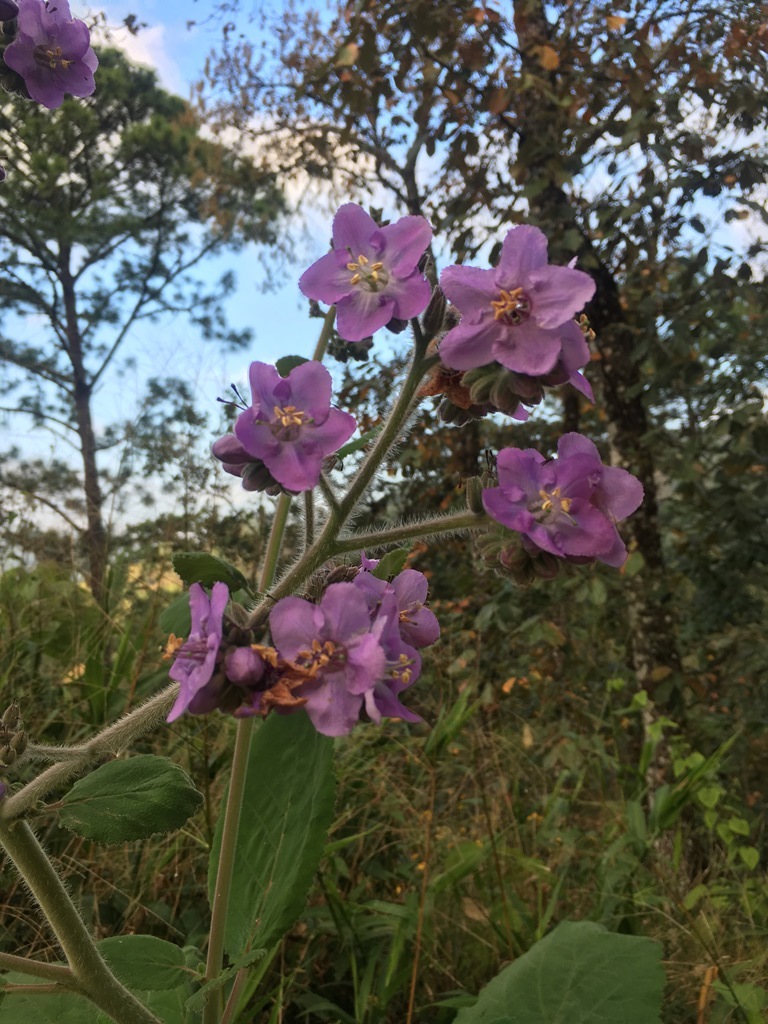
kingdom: Plantae
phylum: Tracheophyta
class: Magnoliopsida
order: Boraginales
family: Namaceae
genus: Wigandia
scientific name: Wigandia urens
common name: Caracus wigandia
